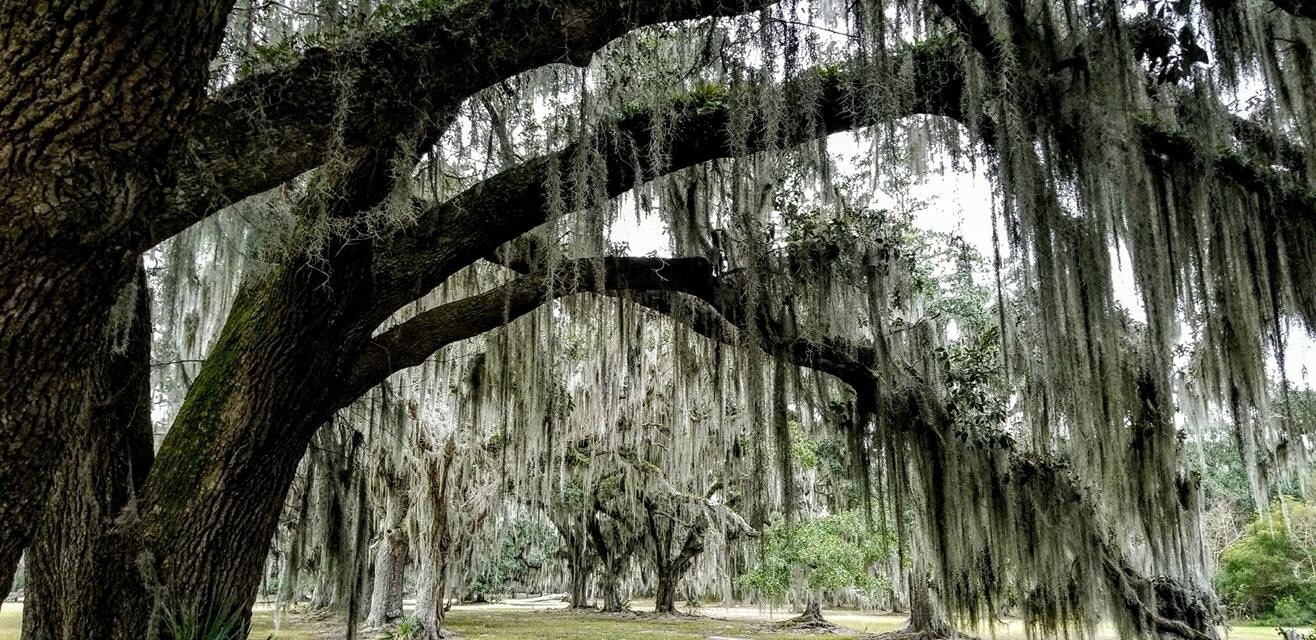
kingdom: Plantae
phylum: Tracheophyta
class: Liliopsida
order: Poales
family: Bromeliaceae
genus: Tillandsia
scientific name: Tillandsia usneoides
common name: Spanish moss
